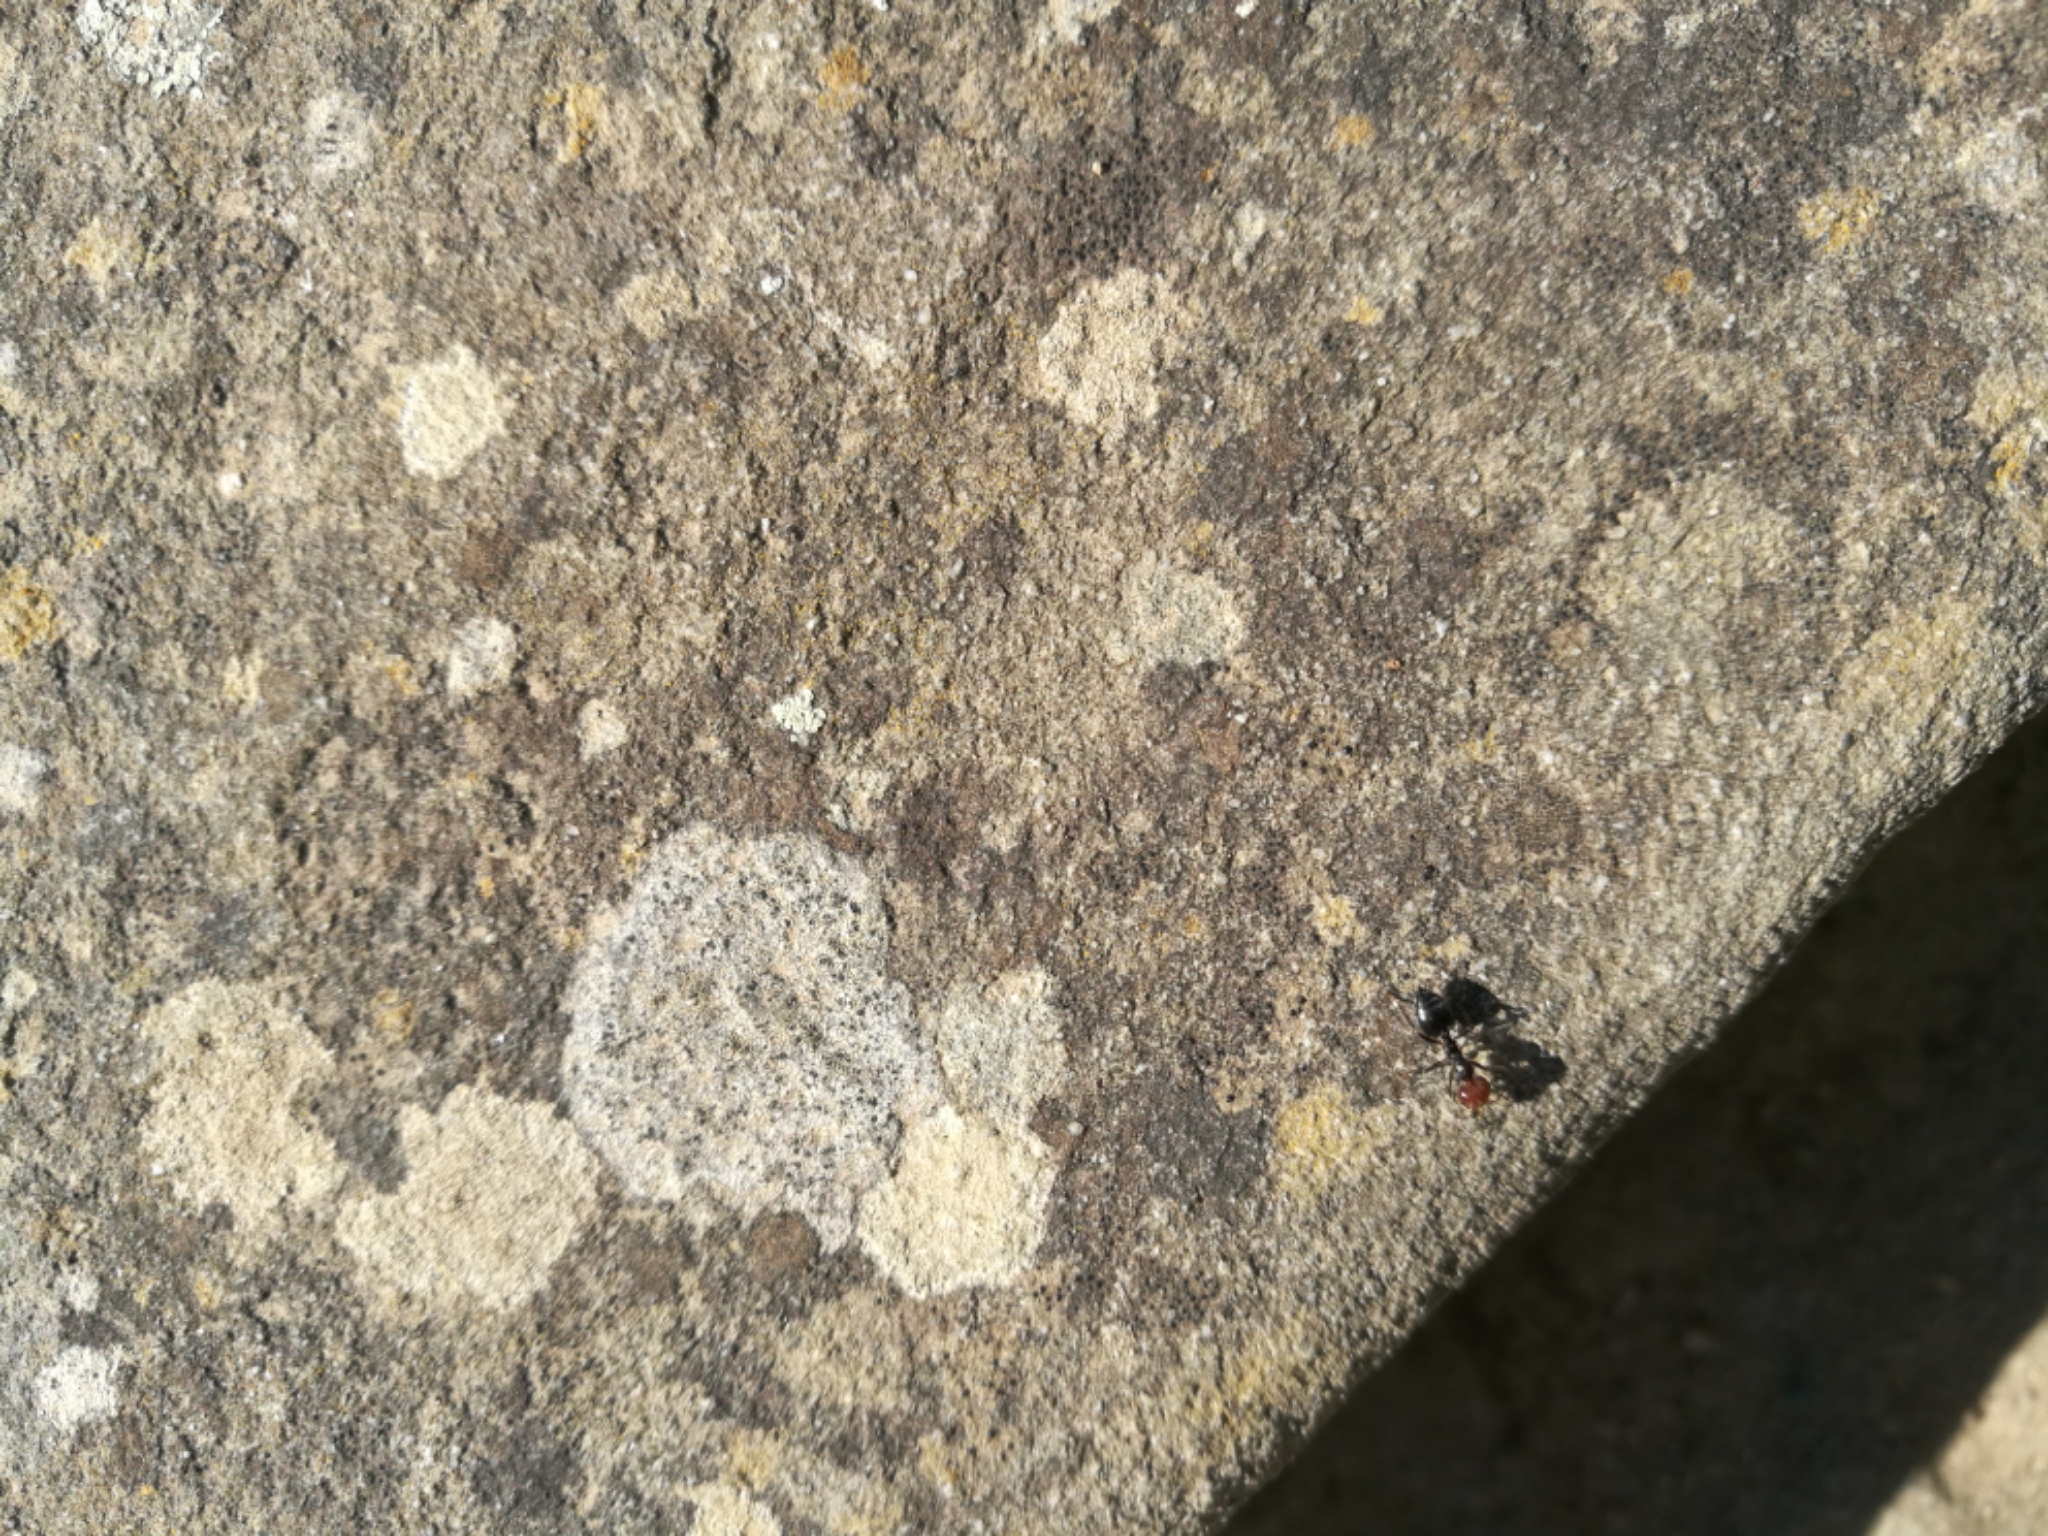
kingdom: Animalia
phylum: Arthropoda
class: Insecta
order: Hymenoptera
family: Formicidae
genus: Crematogaster
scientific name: Crematogaster scutellaris
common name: Fourmi du liège
